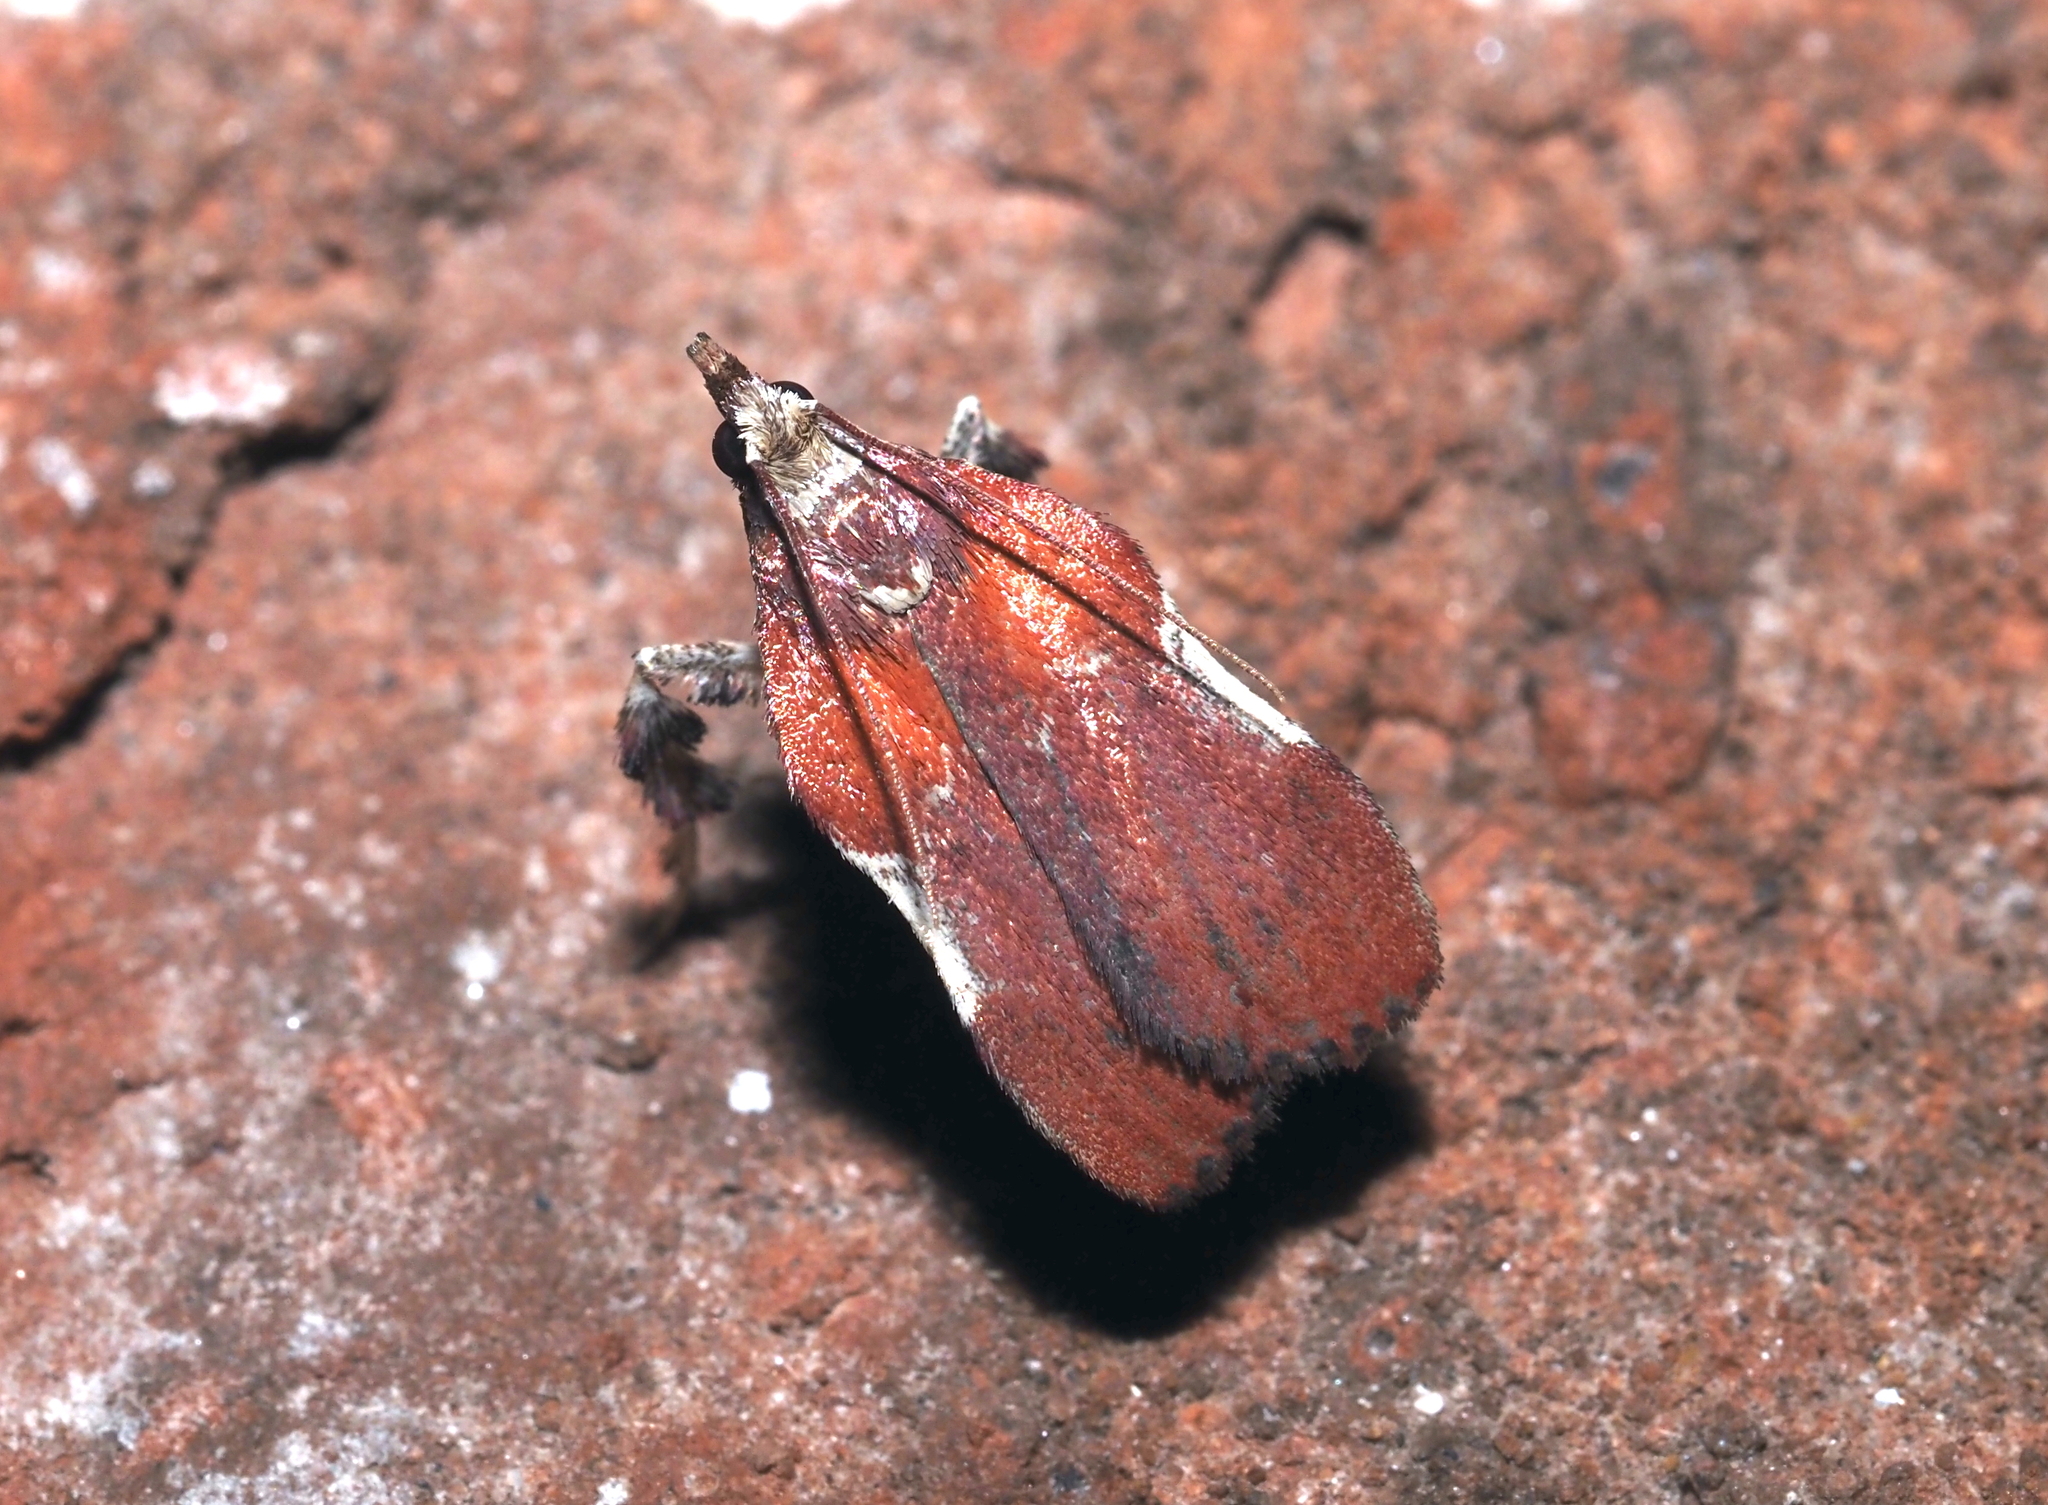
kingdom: Animalia
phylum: Arthropoda
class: Insecta
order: Lepidoptera
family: Pyralidae
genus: Galasa
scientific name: Galasa nigrinodis
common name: Boxwood leaftier moth
